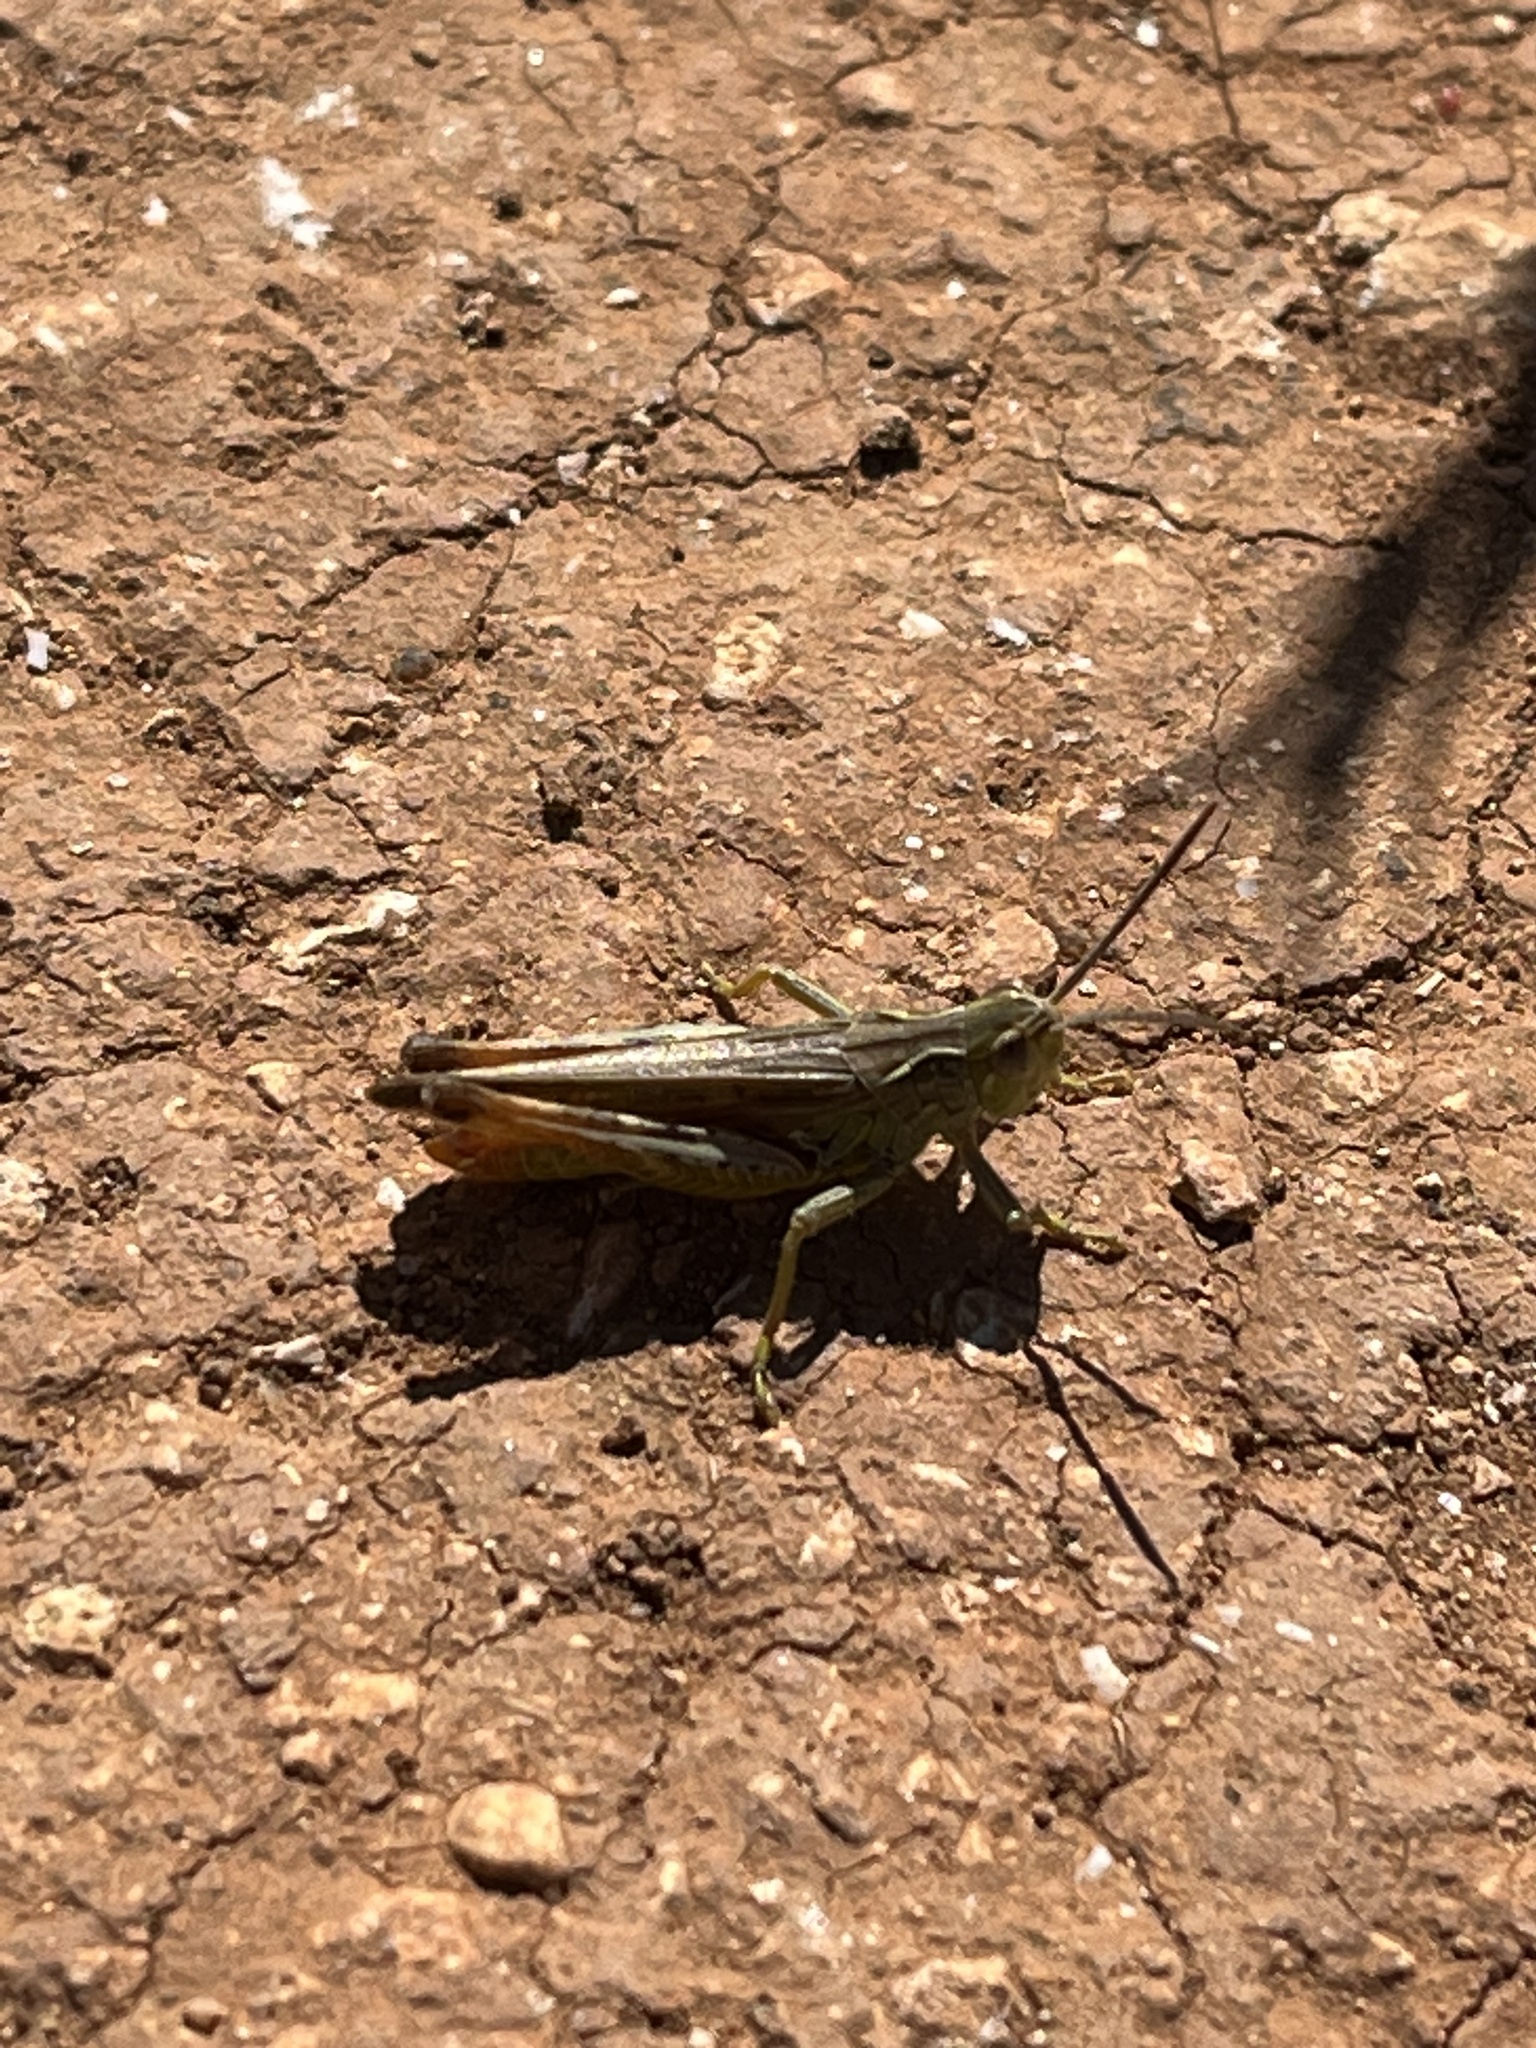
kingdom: Animalia
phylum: Arthropoda
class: Insecta
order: Orthoptera
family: Acrididae
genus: Chorthippus
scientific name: Chorthippus apicalis
